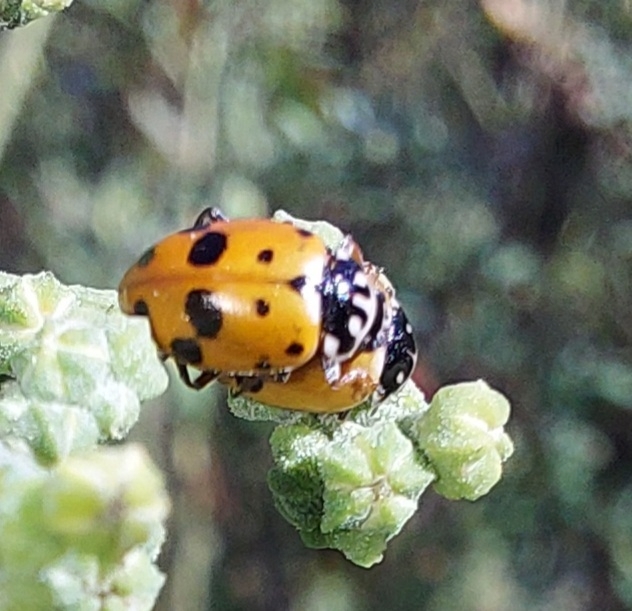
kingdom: Animalia
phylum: Arthropoda
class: Insecta
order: Coleoptera
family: Coccinellidae
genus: Hippodamia
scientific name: Hippodamia variegata
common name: Ladybird beetle
